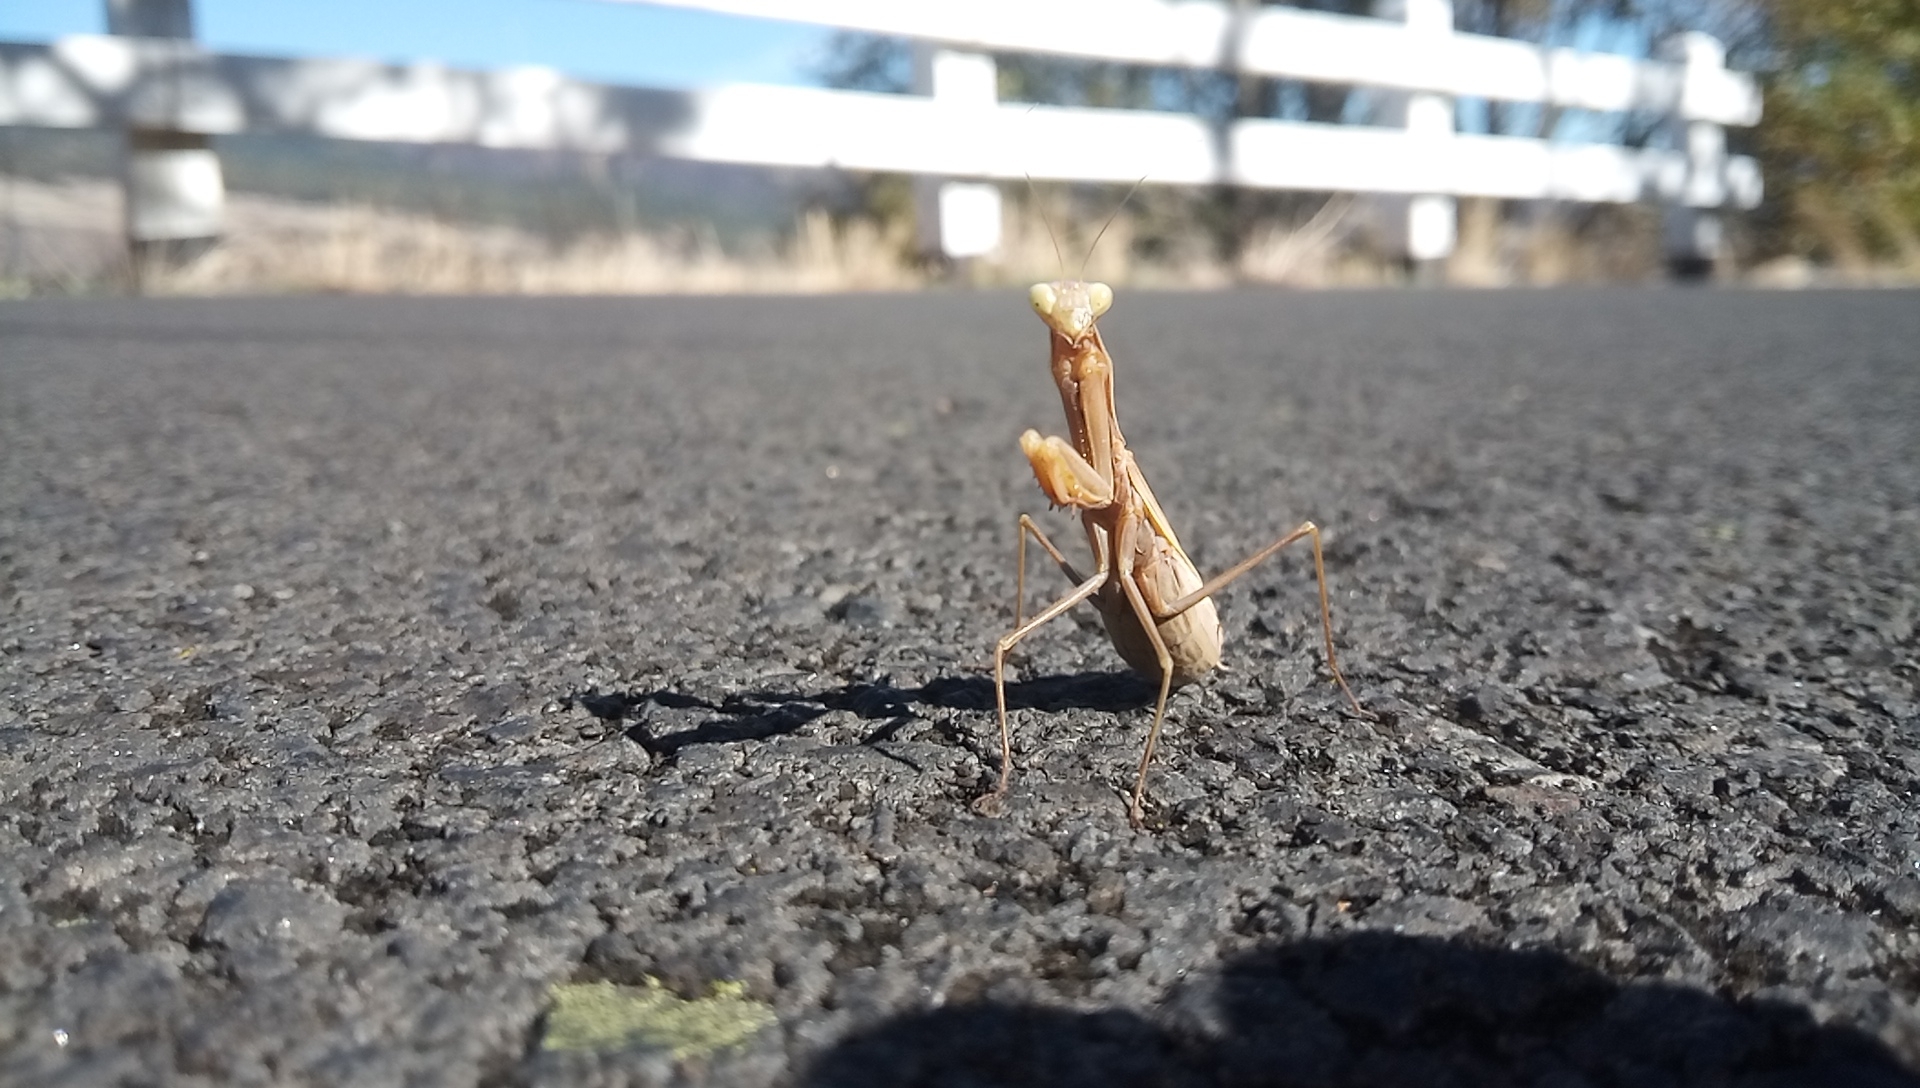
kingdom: Animalia
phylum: Arthropoda
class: Insecta
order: Mantodea
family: Mantidae
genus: Mantis
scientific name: Mantis religiosa
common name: Praying mantis
